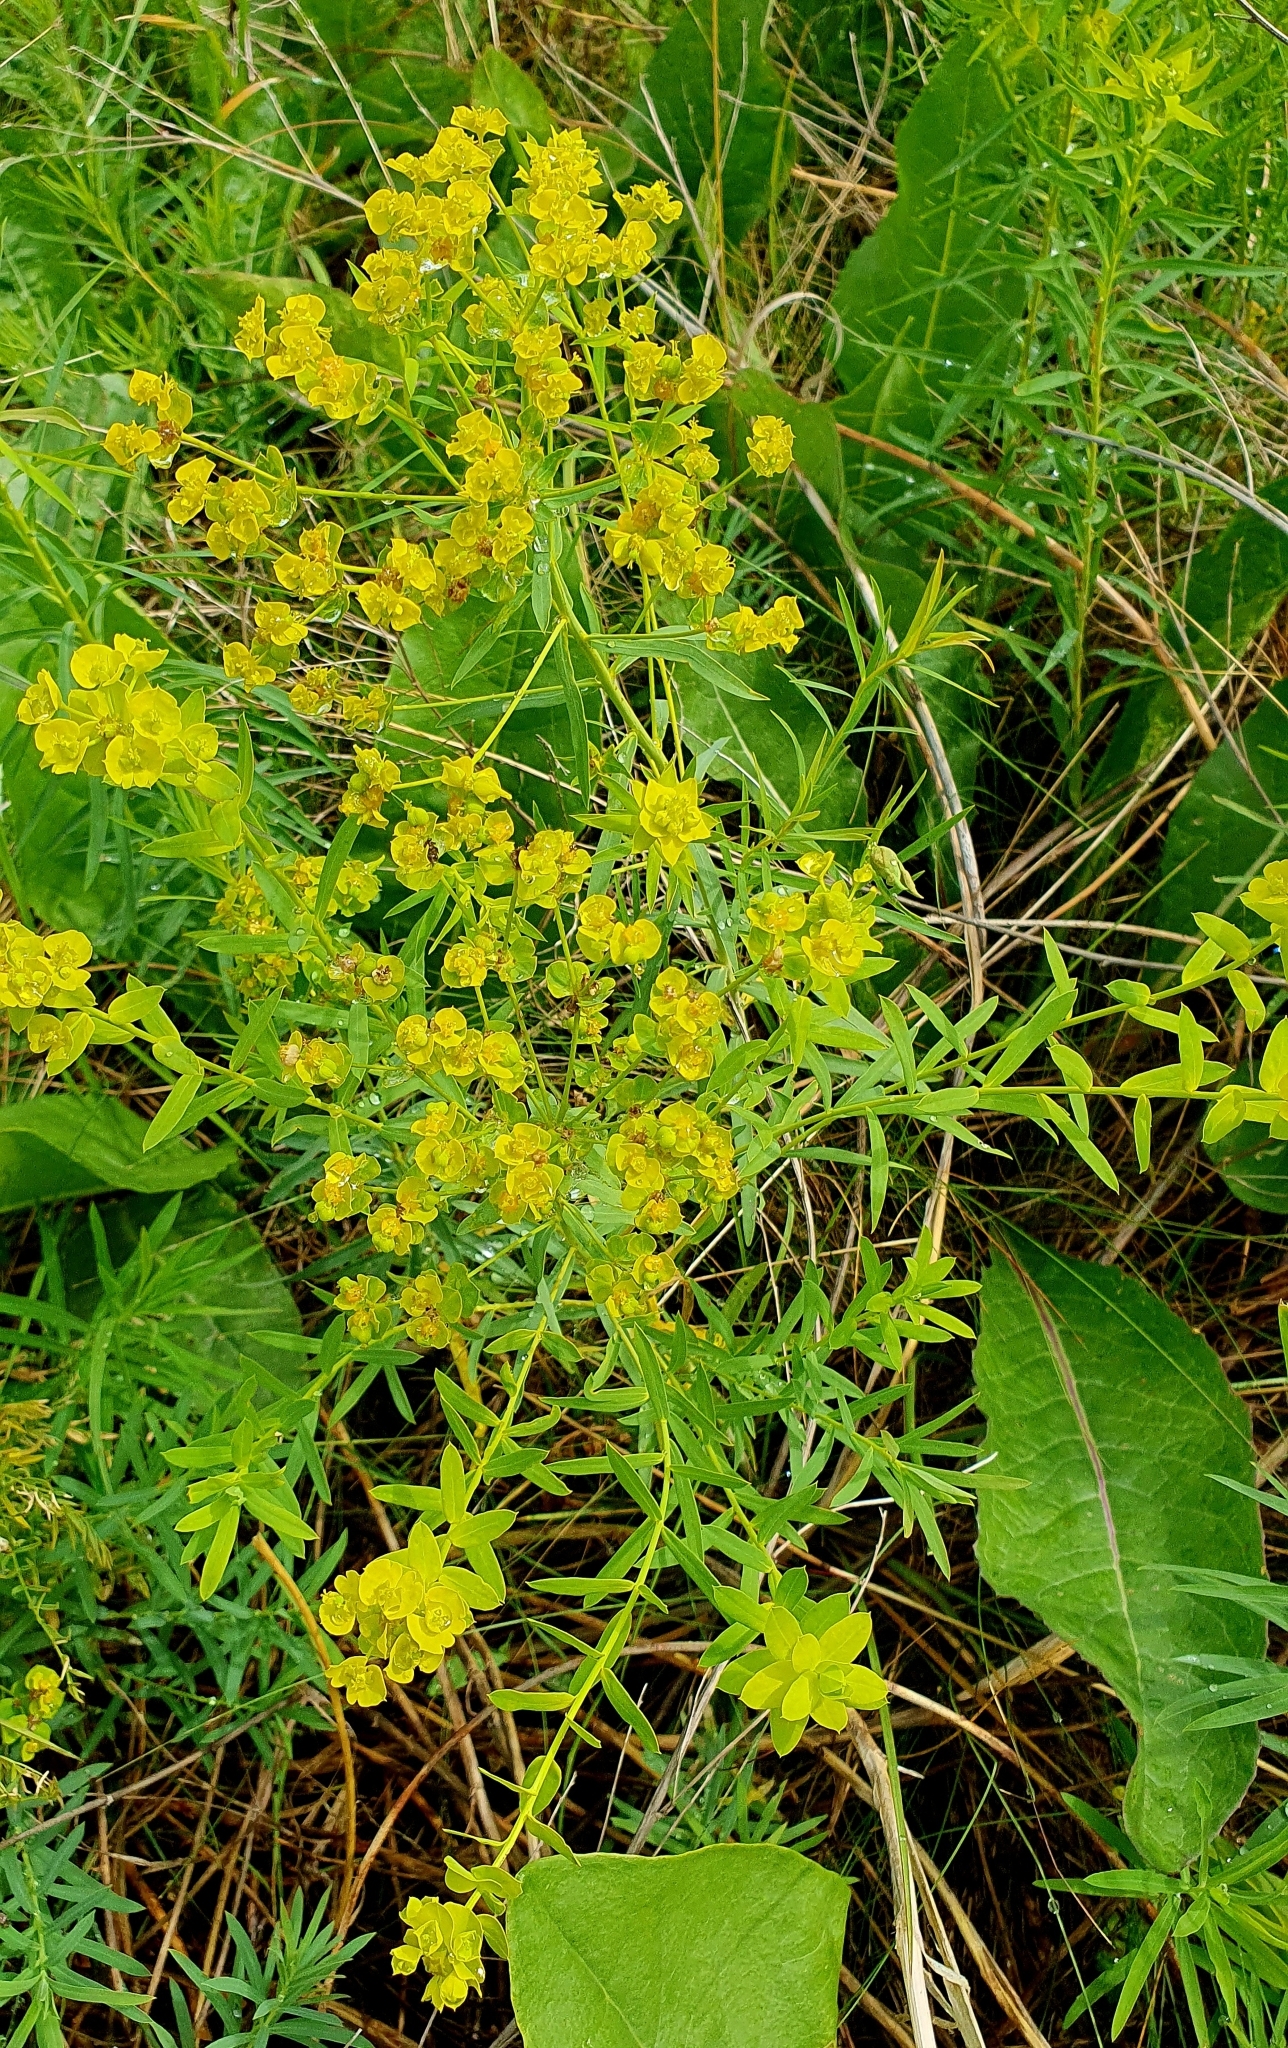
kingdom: Plantae
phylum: Tracheophyta
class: Magnoliopsida
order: Malpighiales
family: Euphorbiaceae
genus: Euphorbia
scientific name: Euphorbia virgata
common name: Leafy spurge
